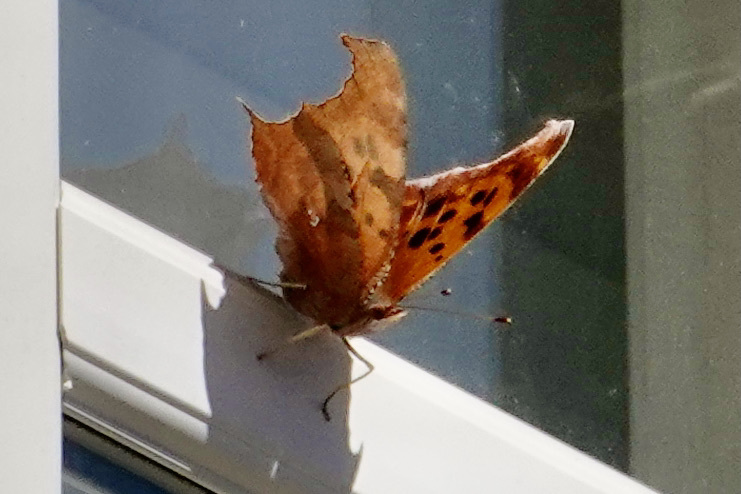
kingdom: Animalia
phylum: Arthropoda
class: Insecta
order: Lepidoptera
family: Nymphalidae
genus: Polygonia
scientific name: Polygonia interrogationis
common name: Question mark
